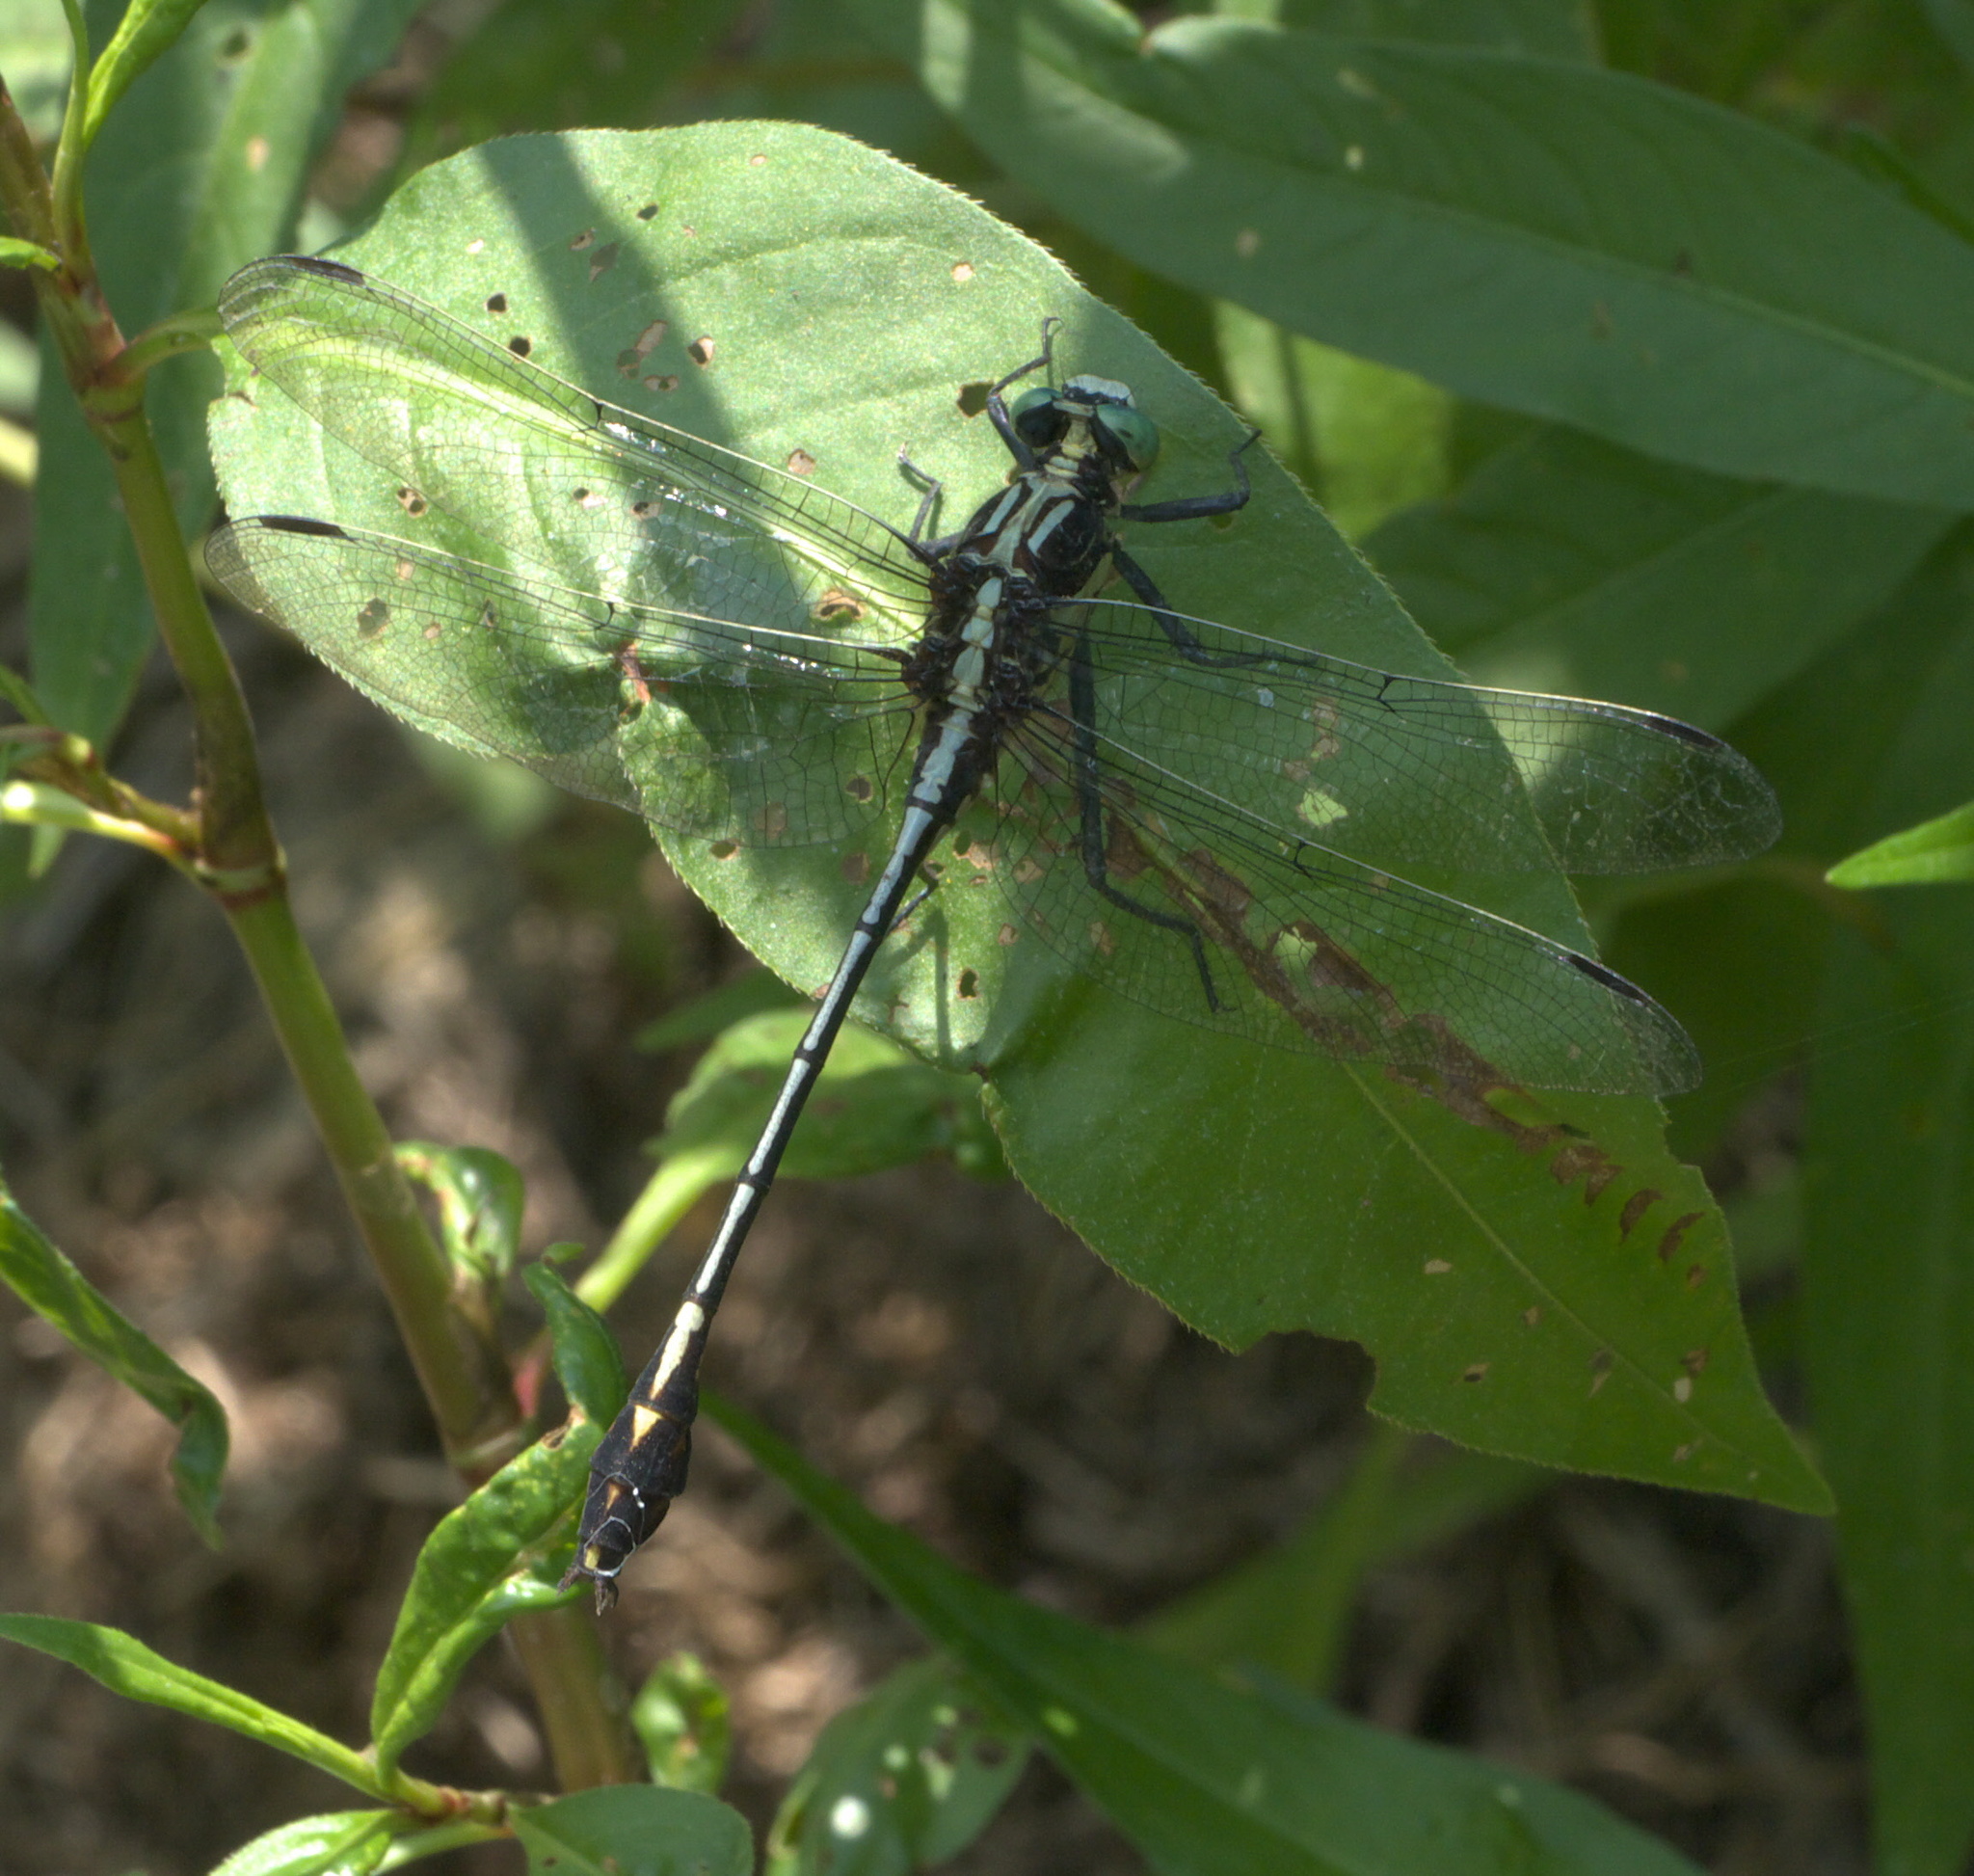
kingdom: Animalia
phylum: Arthropoda
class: Insecta
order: Odonata
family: Gomphidae
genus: Dromogomphus
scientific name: Dromogomphus spinosus
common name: Black-shouldered spinyleg
